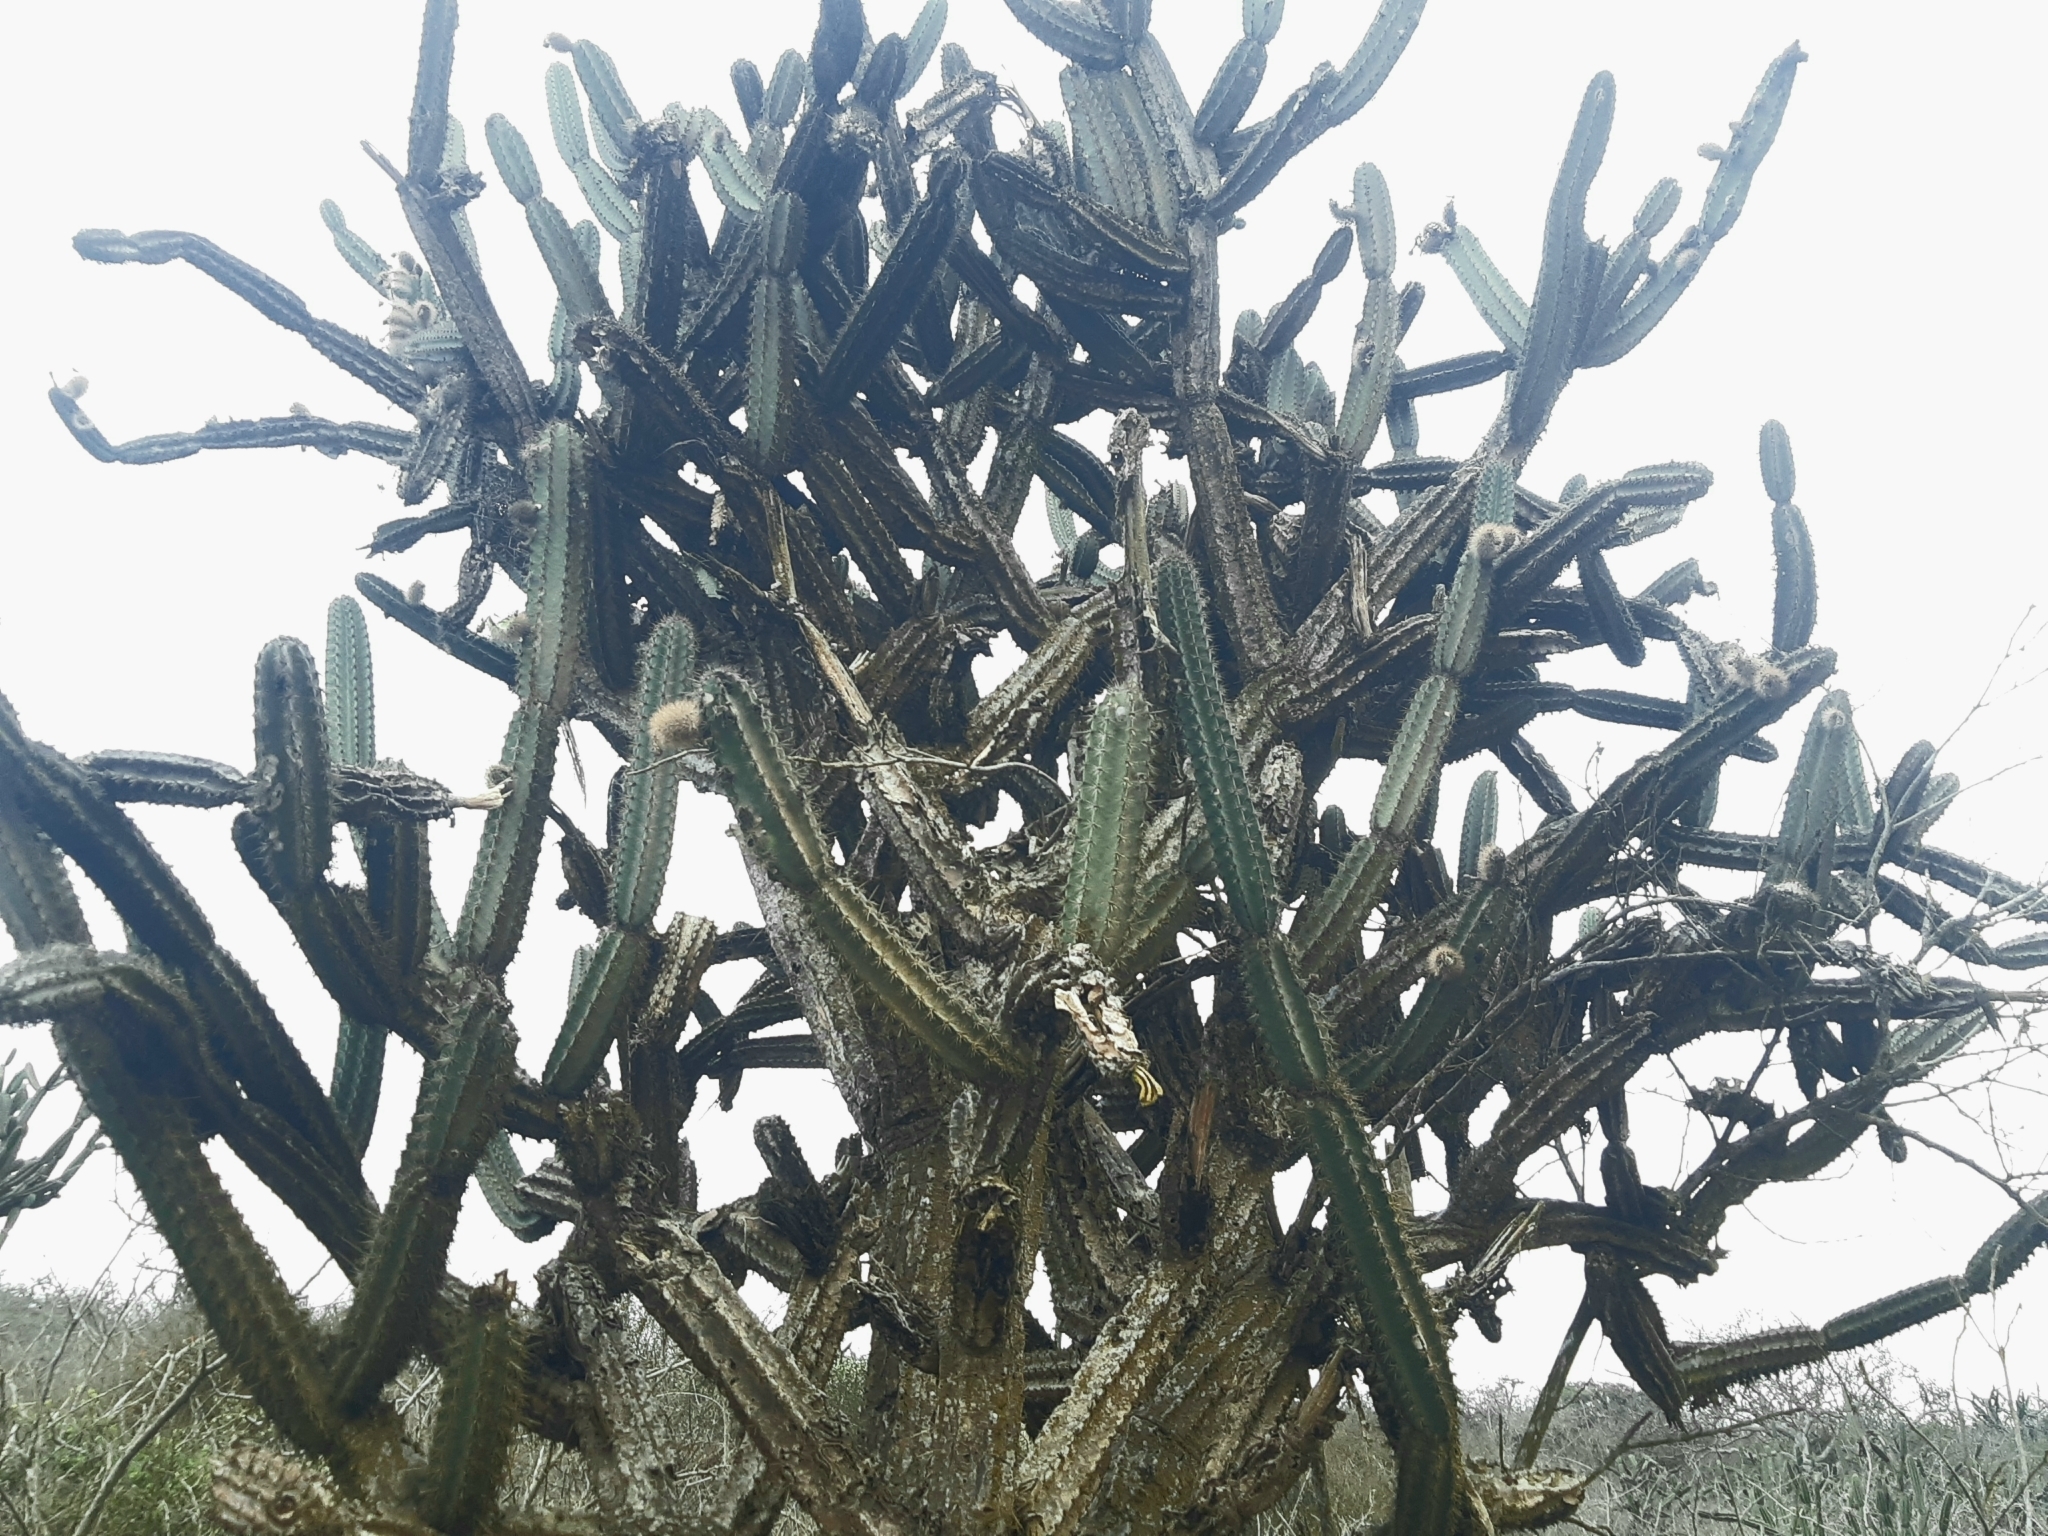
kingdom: Plantae
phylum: Tracheophyta
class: Magnoliopsida
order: Caryophyllales
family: Cactaceae
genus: Armatocereus
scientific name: Armatocereus cartwrightianus
